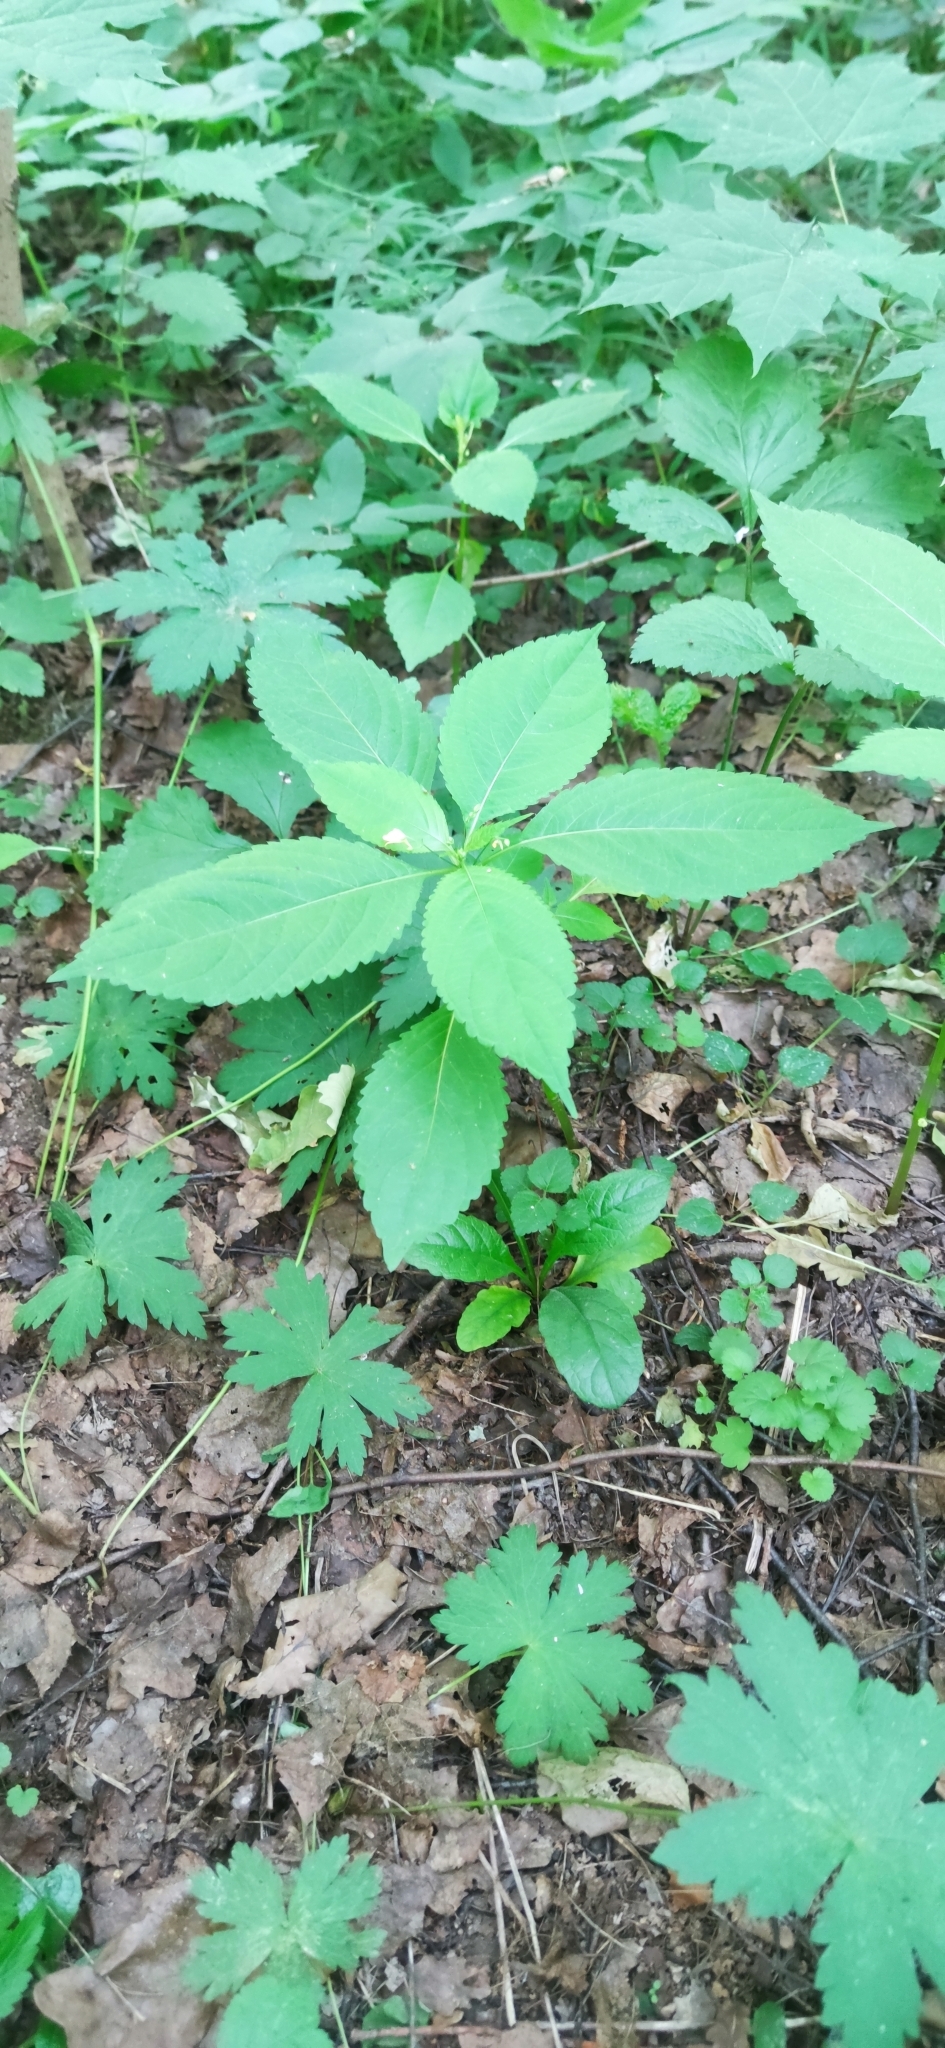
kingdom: Plantae
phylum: Tracheophyta
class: Magnoliopsida
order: Ericales
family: Balsaminaceae
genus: Impatiens
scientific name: Impatiens parviflora
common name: Small balsam
